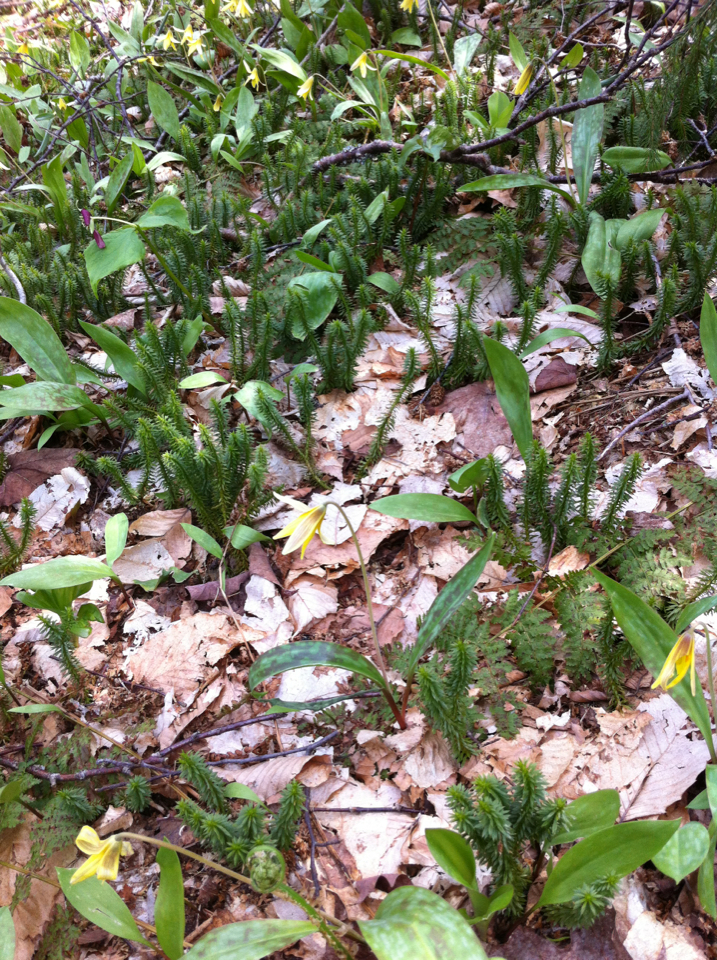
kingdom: Plantae
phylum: Tracheophyta
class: Liliopsida
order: Liliales
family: Liliaceae
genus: Erythronium
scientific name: Erythronium americanum
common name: Yellow adder's-tongue
